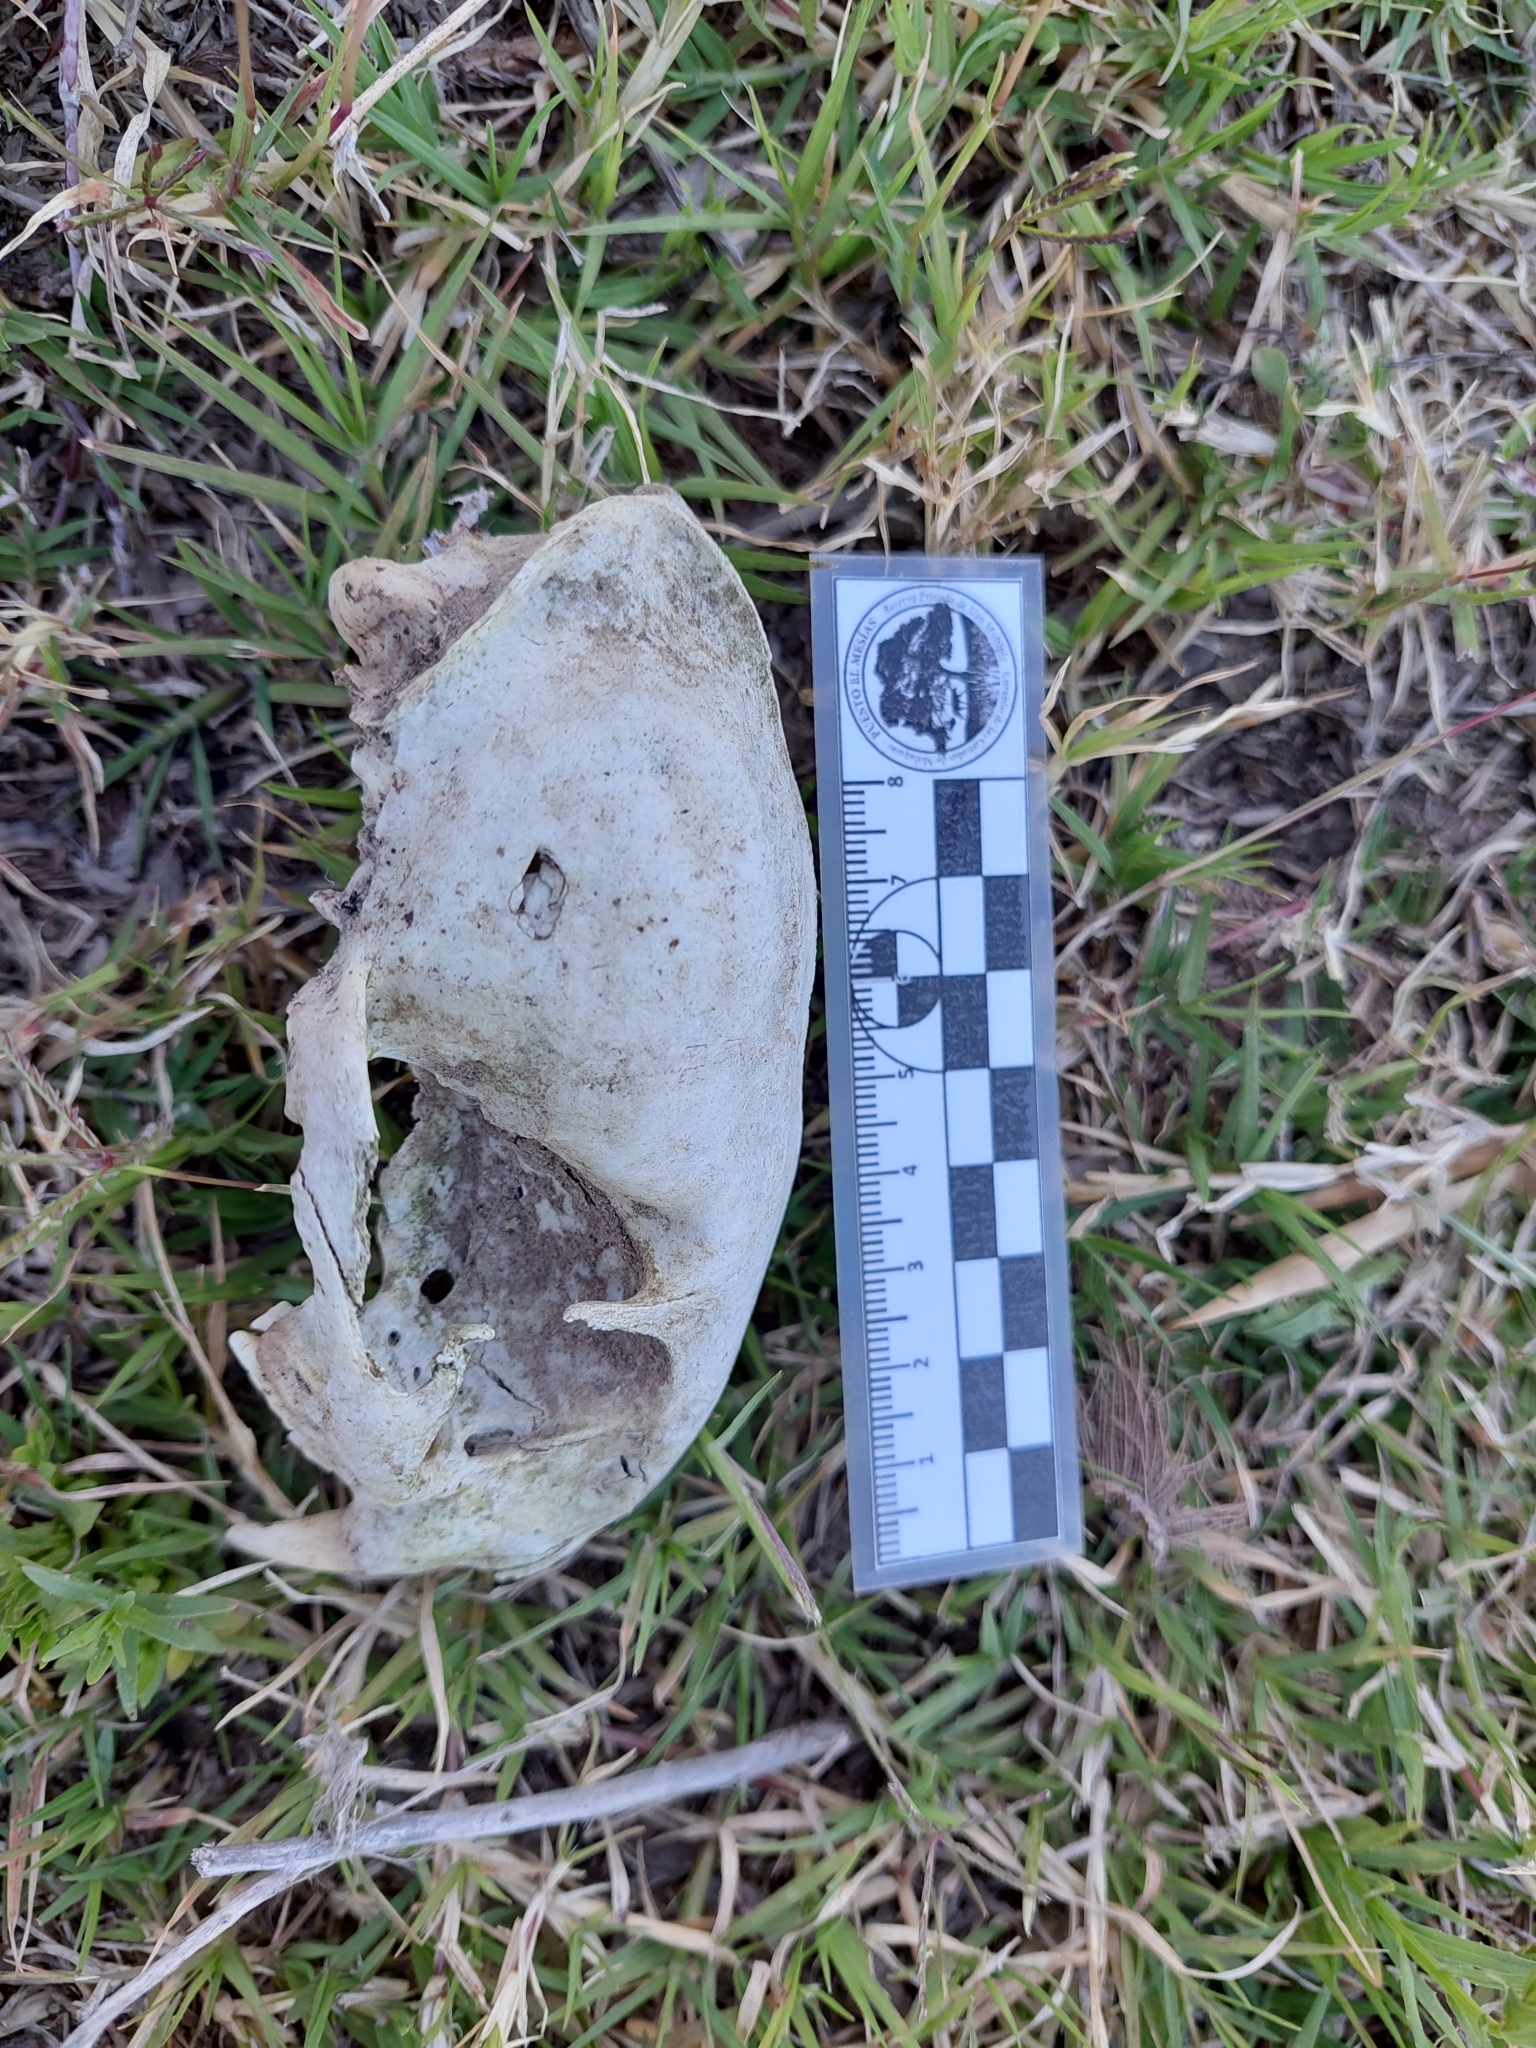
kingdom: Animalia
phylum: Chordata
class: Mammalia
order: Carnivora
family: Felidae
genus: Leopardus
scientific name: Leopardus geoffroyi
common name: Geoffroy's cat
